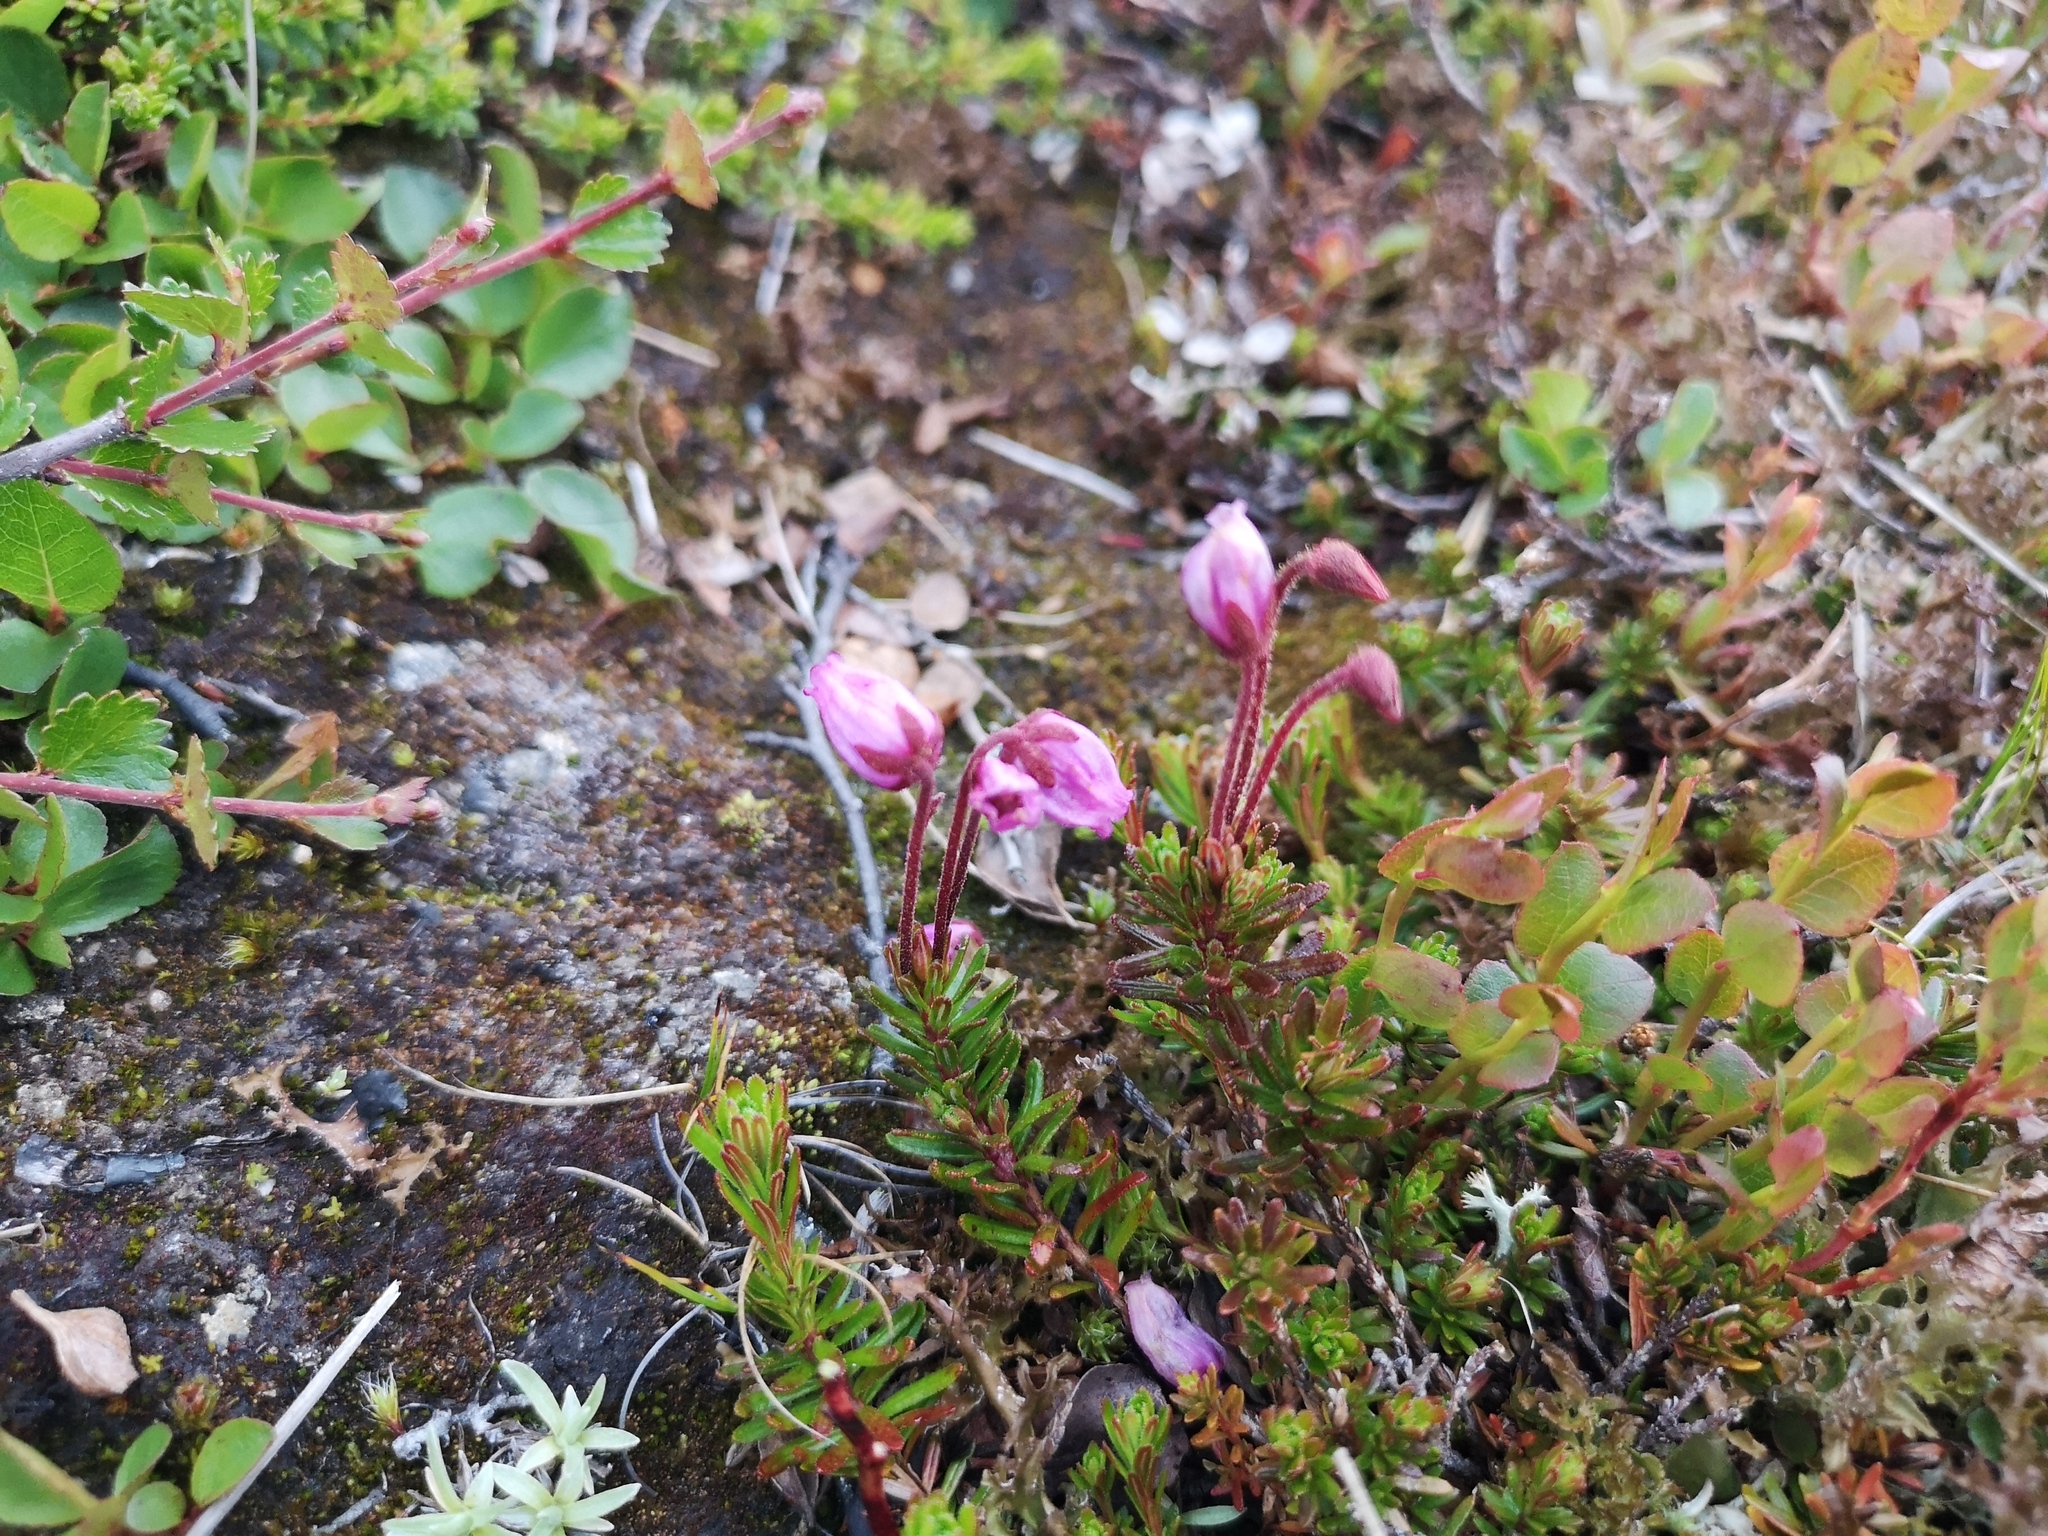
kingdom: Plantae
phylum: Tracheophyta
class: Magnoliopsida
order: Ericales
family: Ericaceae
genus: Phyllodoce
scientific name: Phyllodoce caerulea
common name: Blue heath
